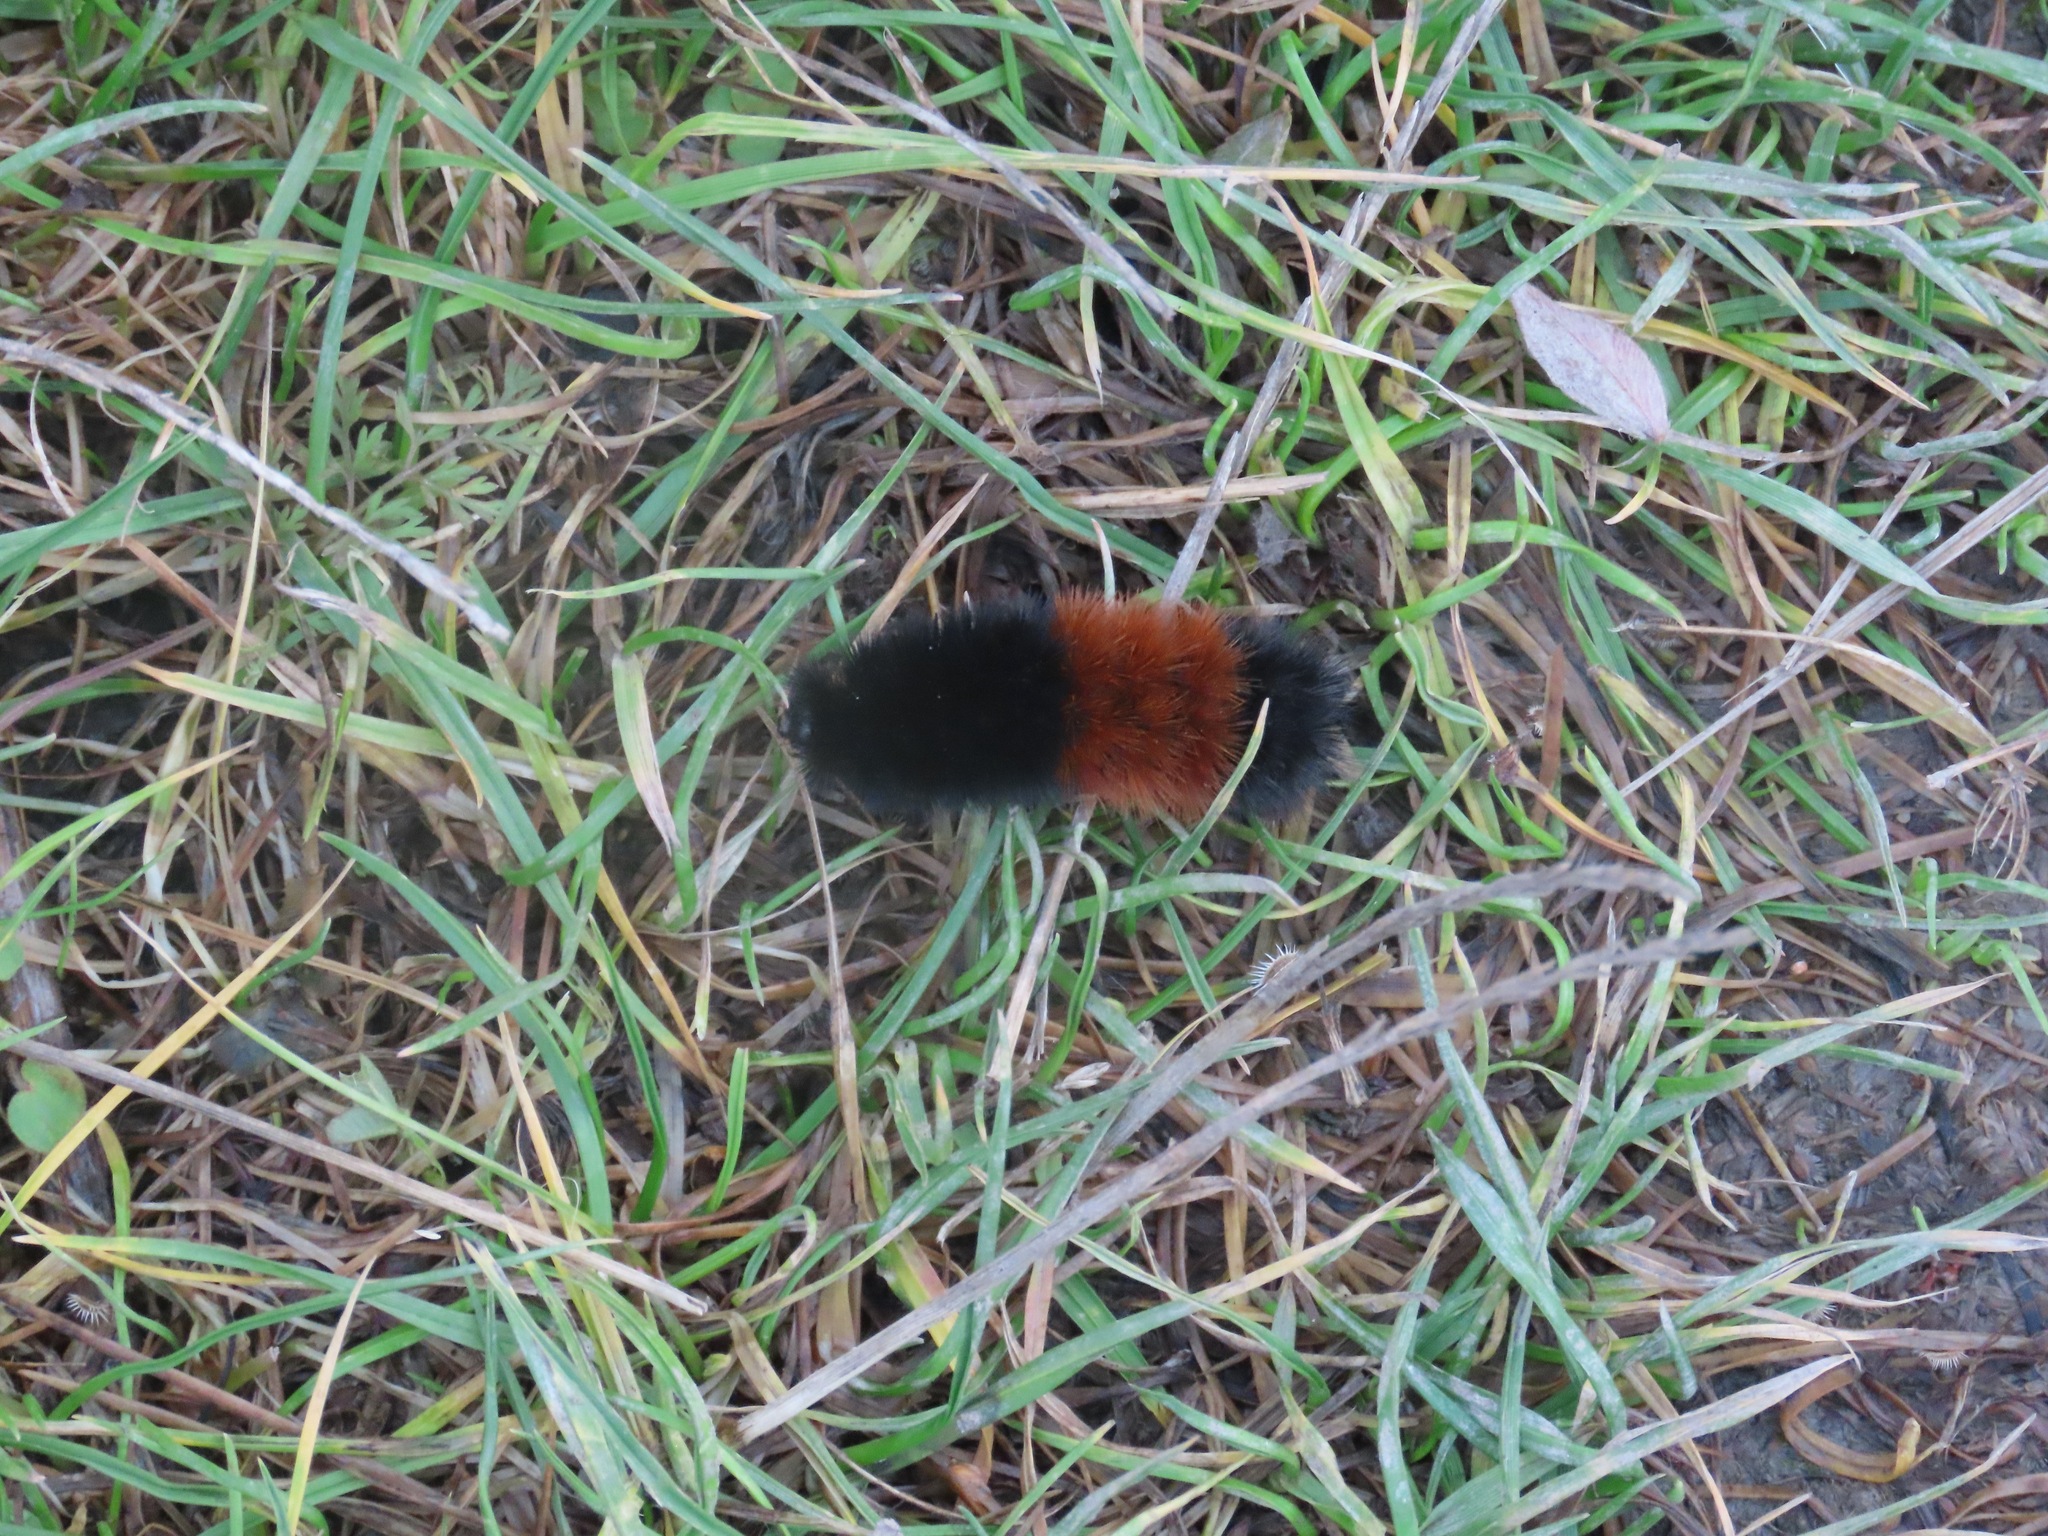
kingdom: Animalia
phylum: Arthropoda
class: Insecta
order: Lepidoptera
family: Erebidae
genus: Pyrrharctia
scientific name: Pyrrharctia isabella
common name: Isabella tiger moth
